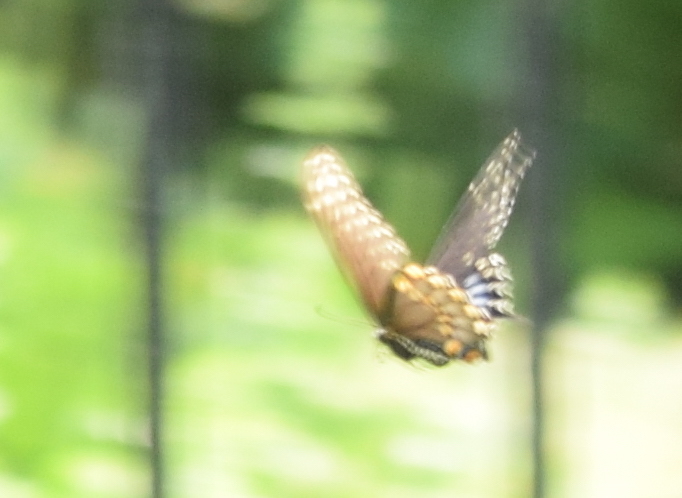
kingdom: Animalia
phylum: Arthropoda
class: Insecta
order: Lepidoptera
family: Papilionidae
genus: Papilio
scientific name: Papilio polyxenes
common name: Black swallowtail
